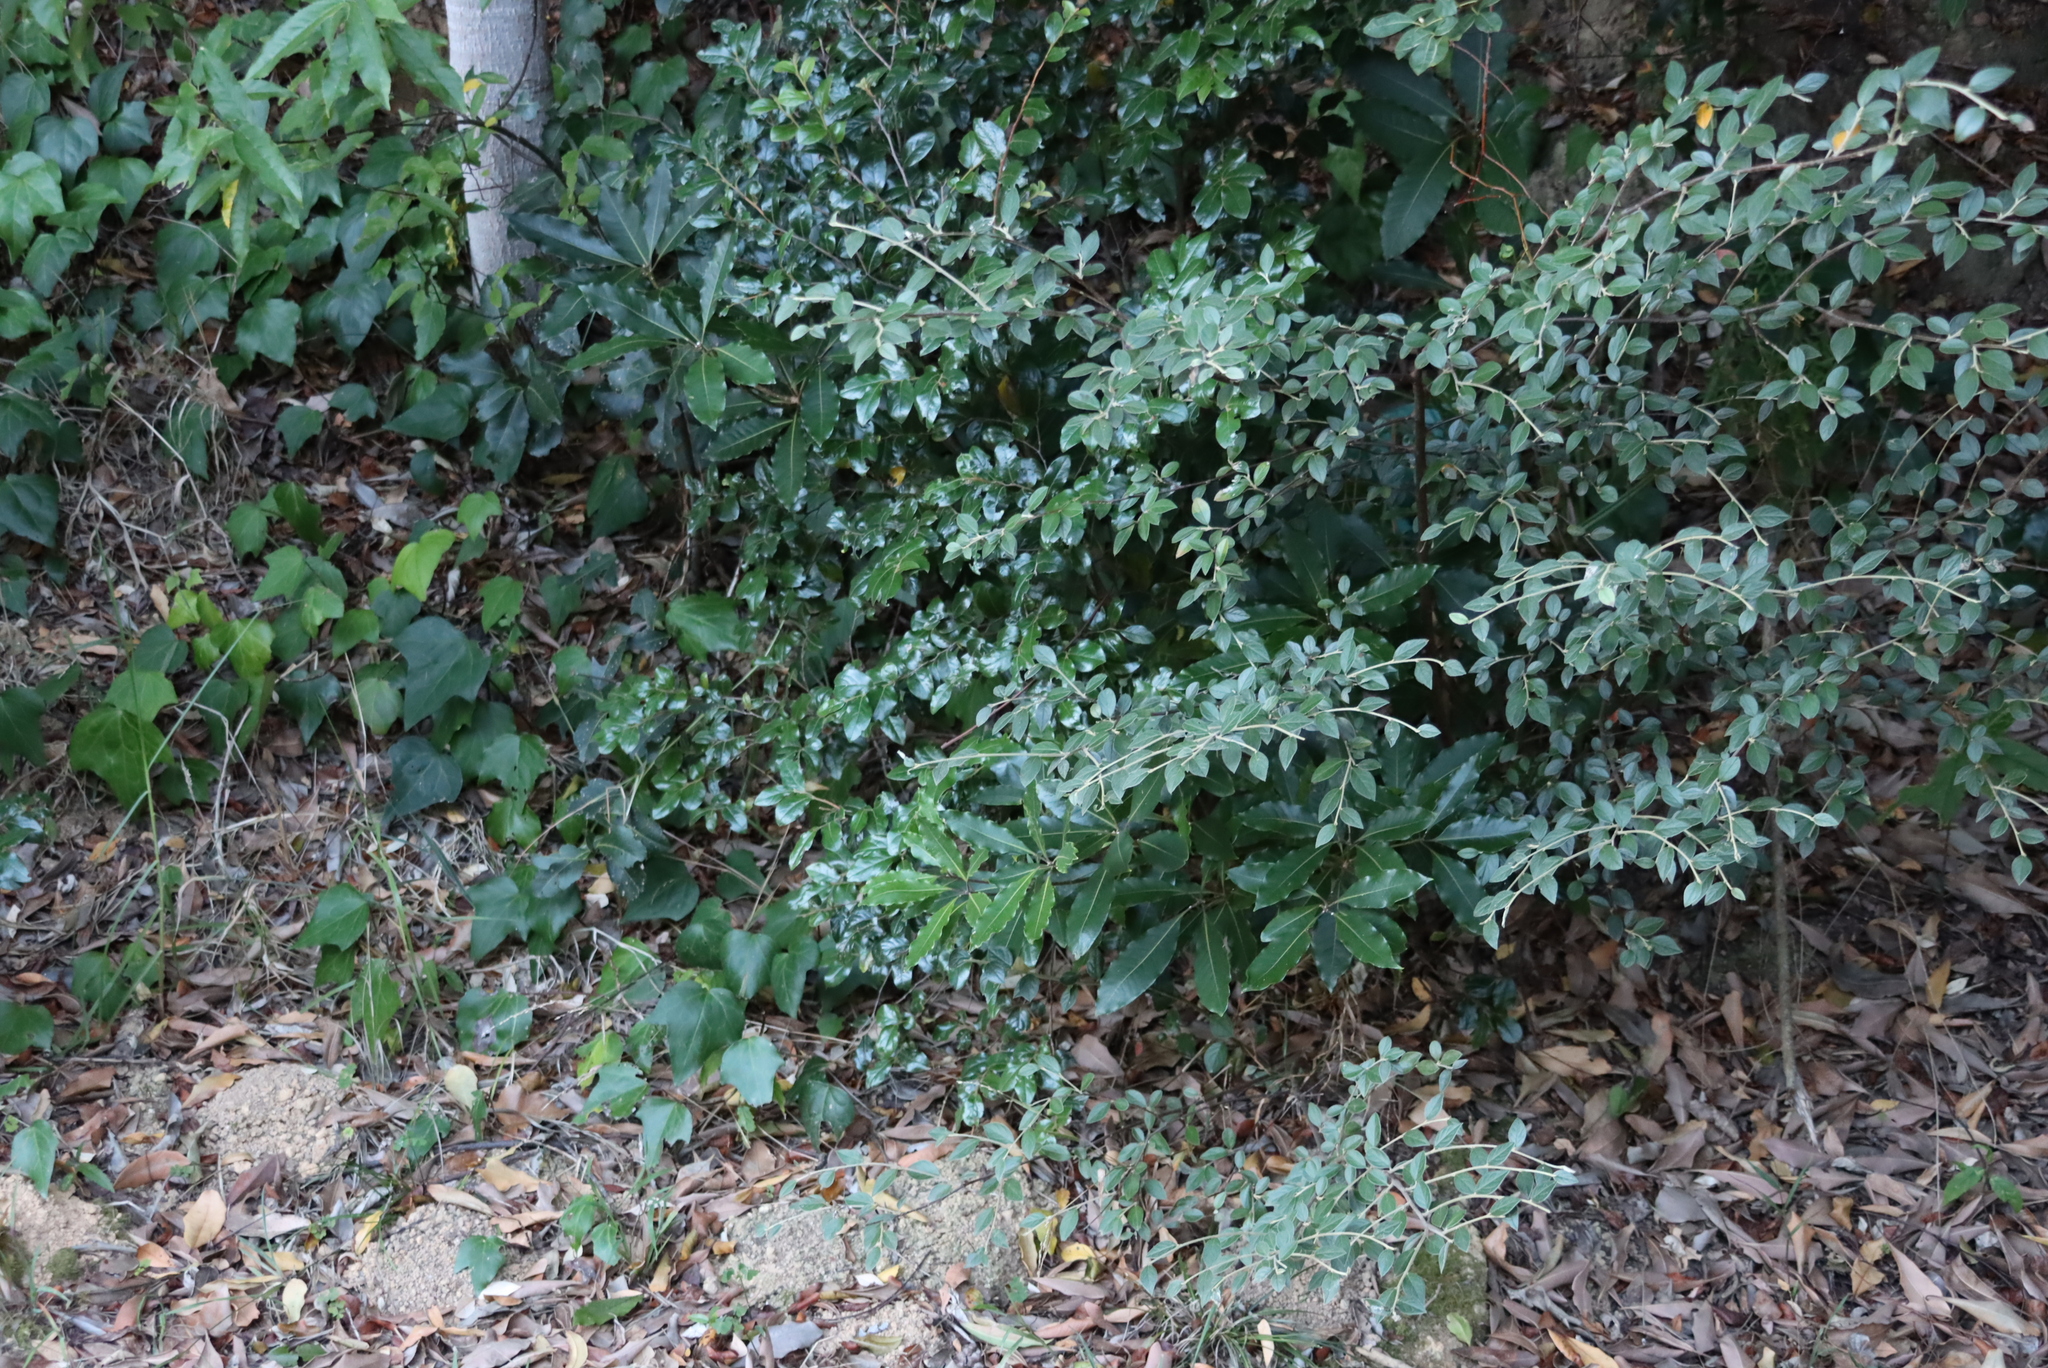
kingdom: Plantae
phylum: Tracheophyta
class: Magnoliopsida
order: Apiales
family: Pittosporaceae
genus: Pittosporum
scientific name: Pittosporum undulatum
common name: Australian cheesewood
